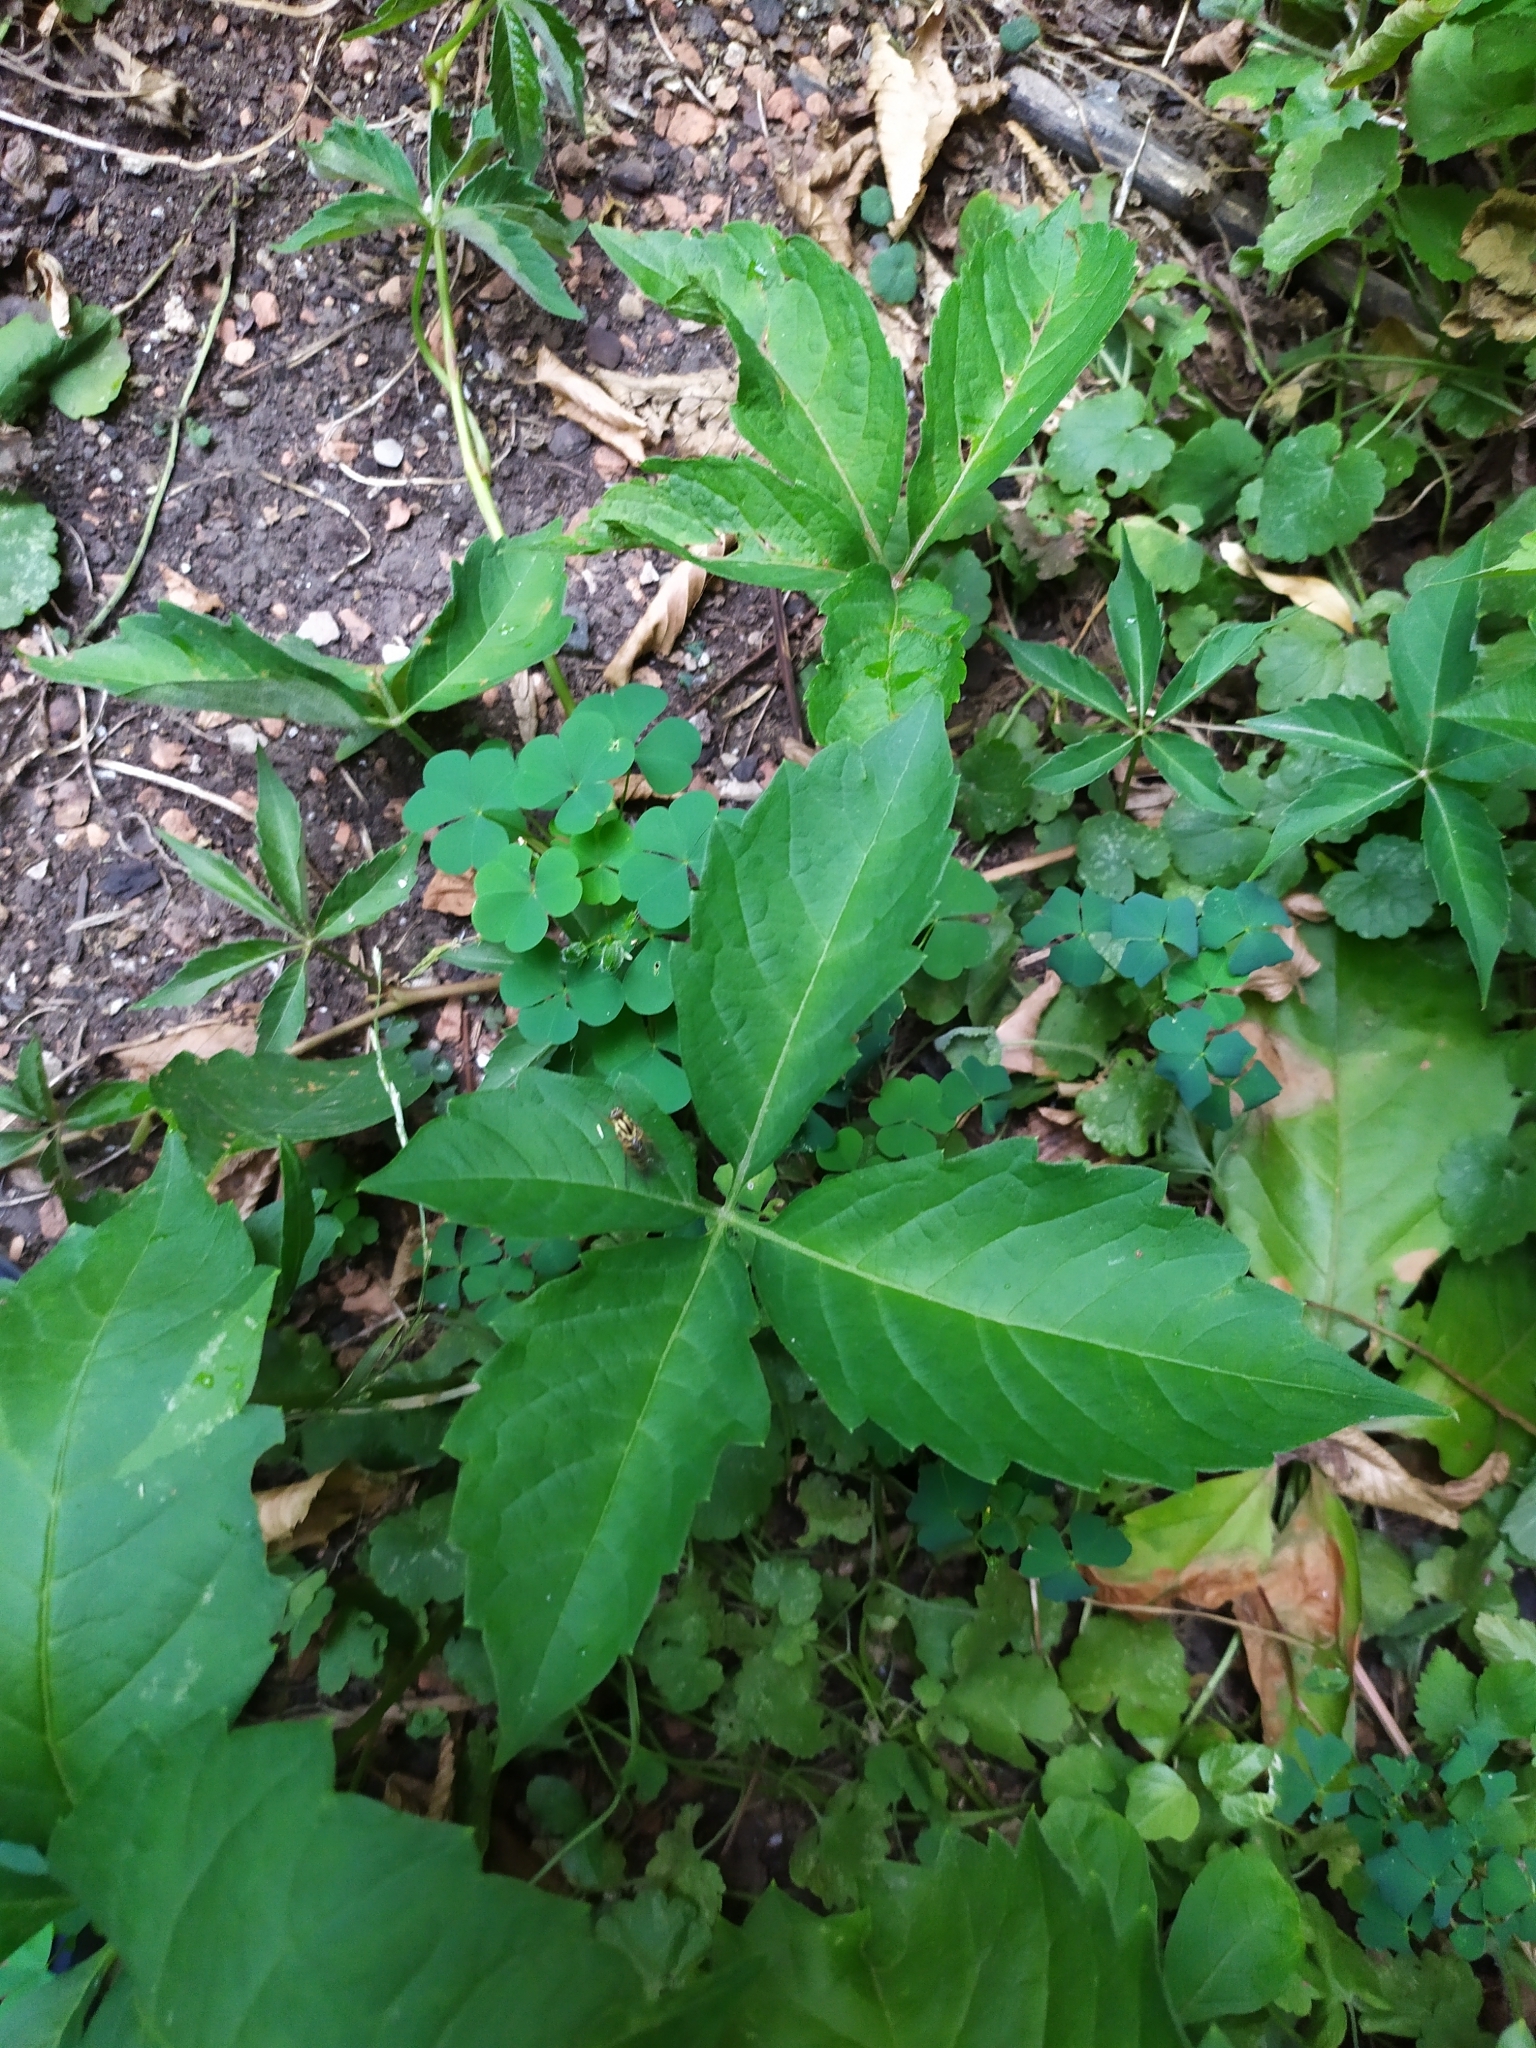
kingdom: Animalia
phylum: Arthropoda
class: Insecta
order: Diptera
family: Therevidae
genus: Thereva
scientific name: Thereva aurata
